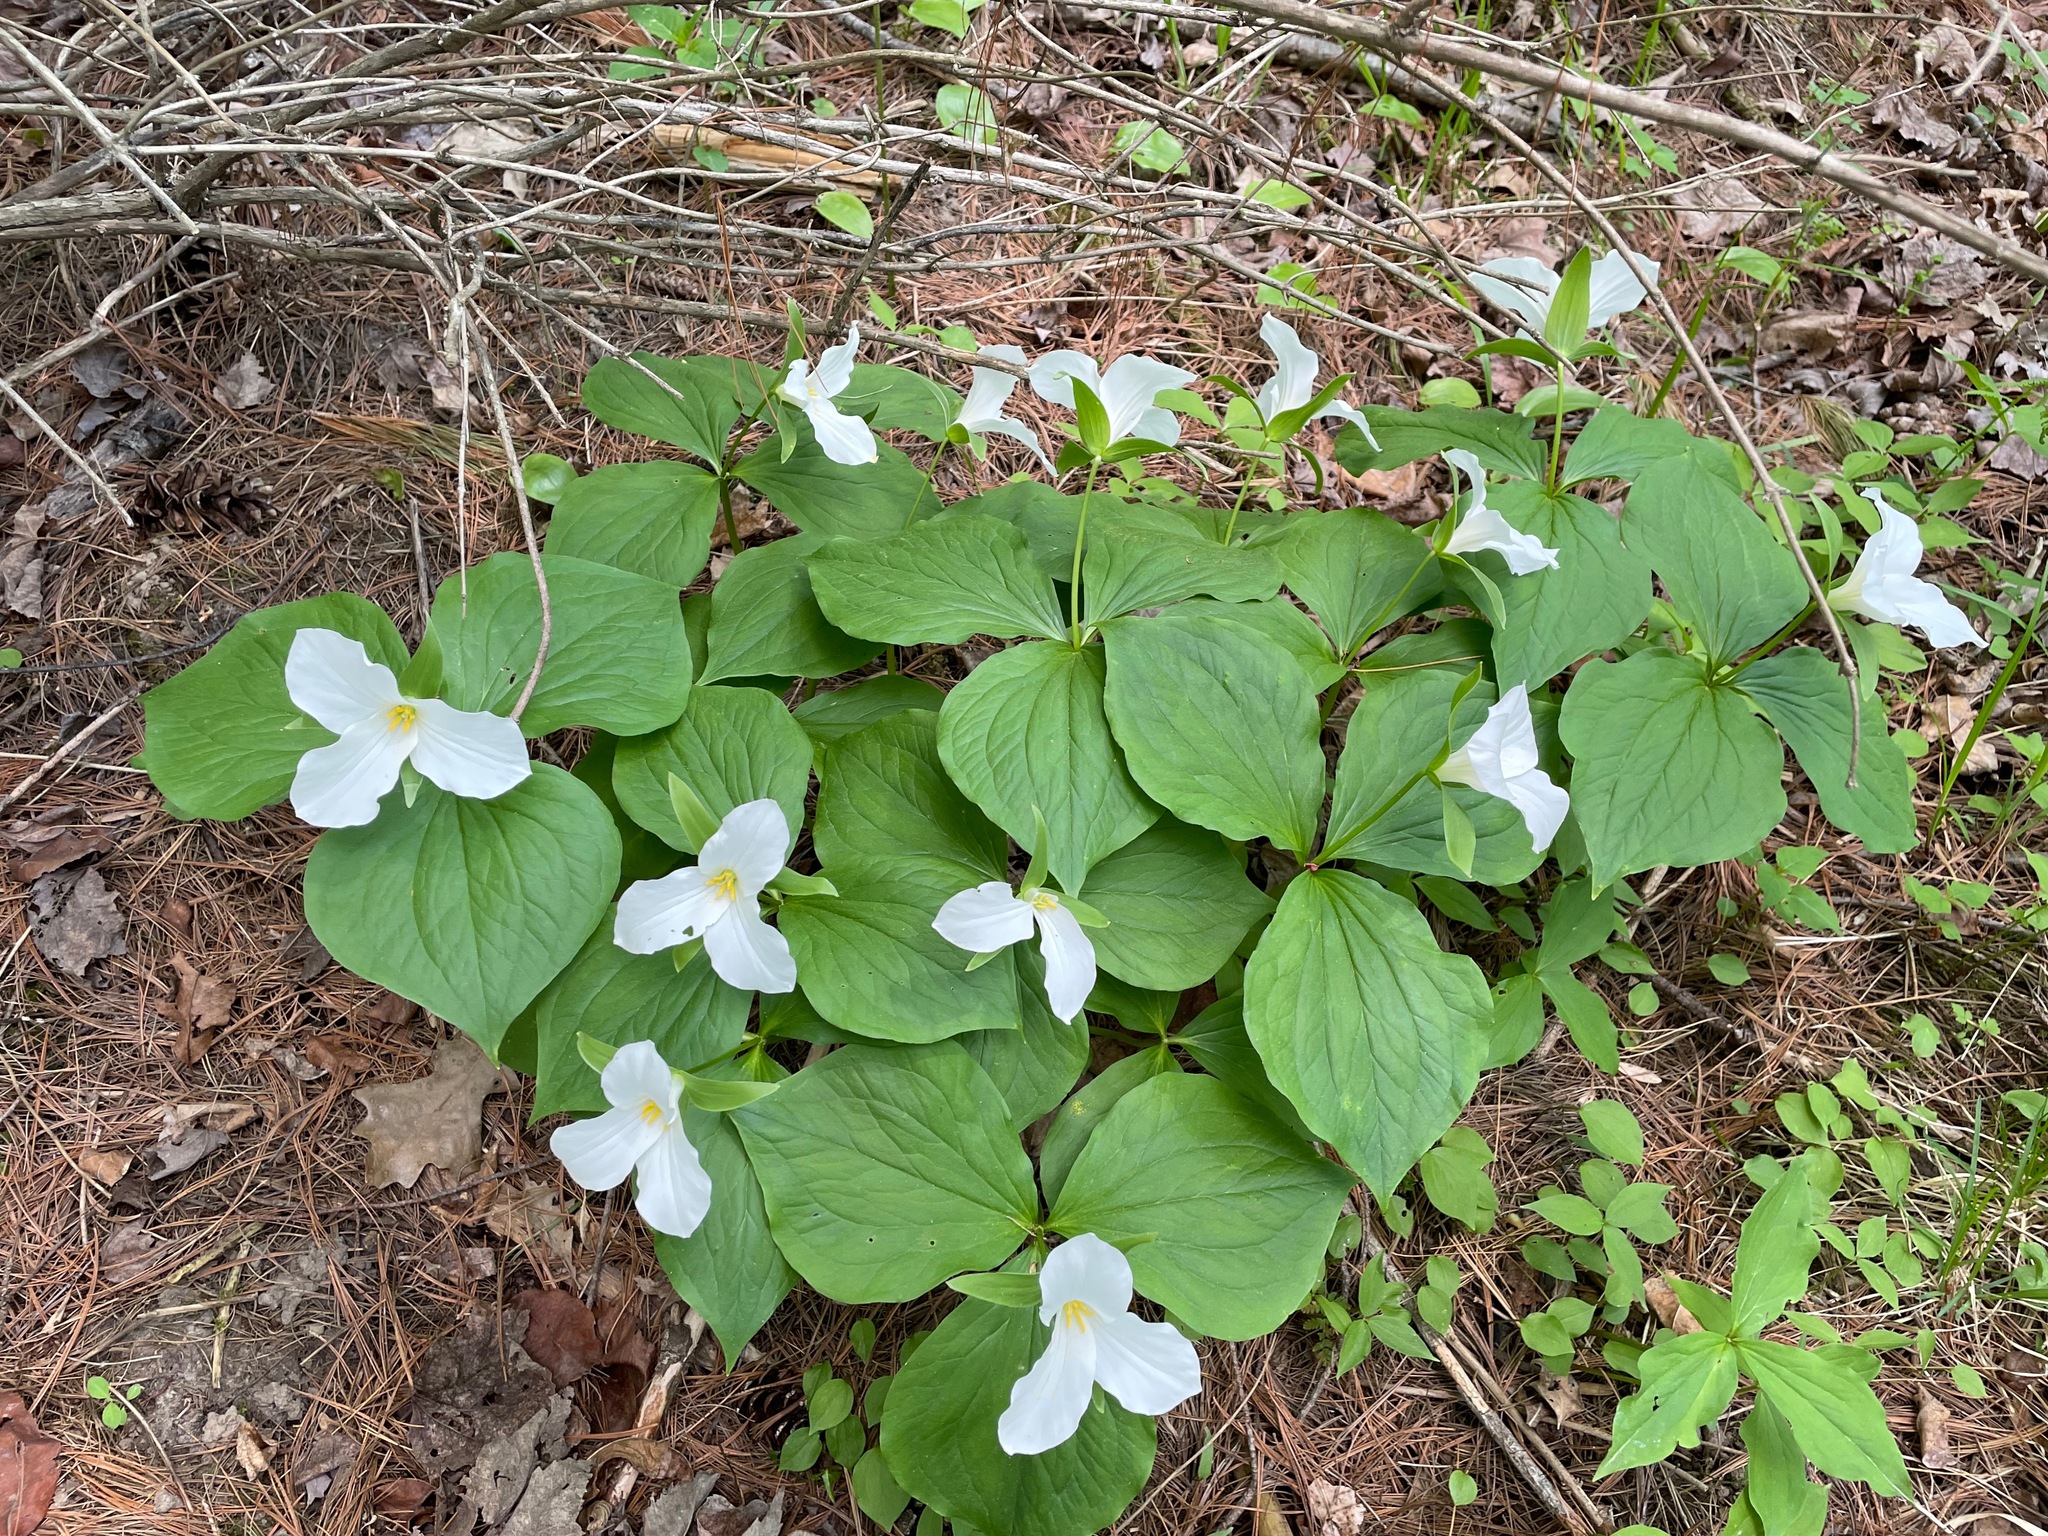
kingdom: Plantae
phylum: Tracheophyta
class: Liliopsida
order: Liliales
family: Melanthiaceae
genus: Trillium
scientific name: Trillium grandiflorum
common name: Great white trillium
